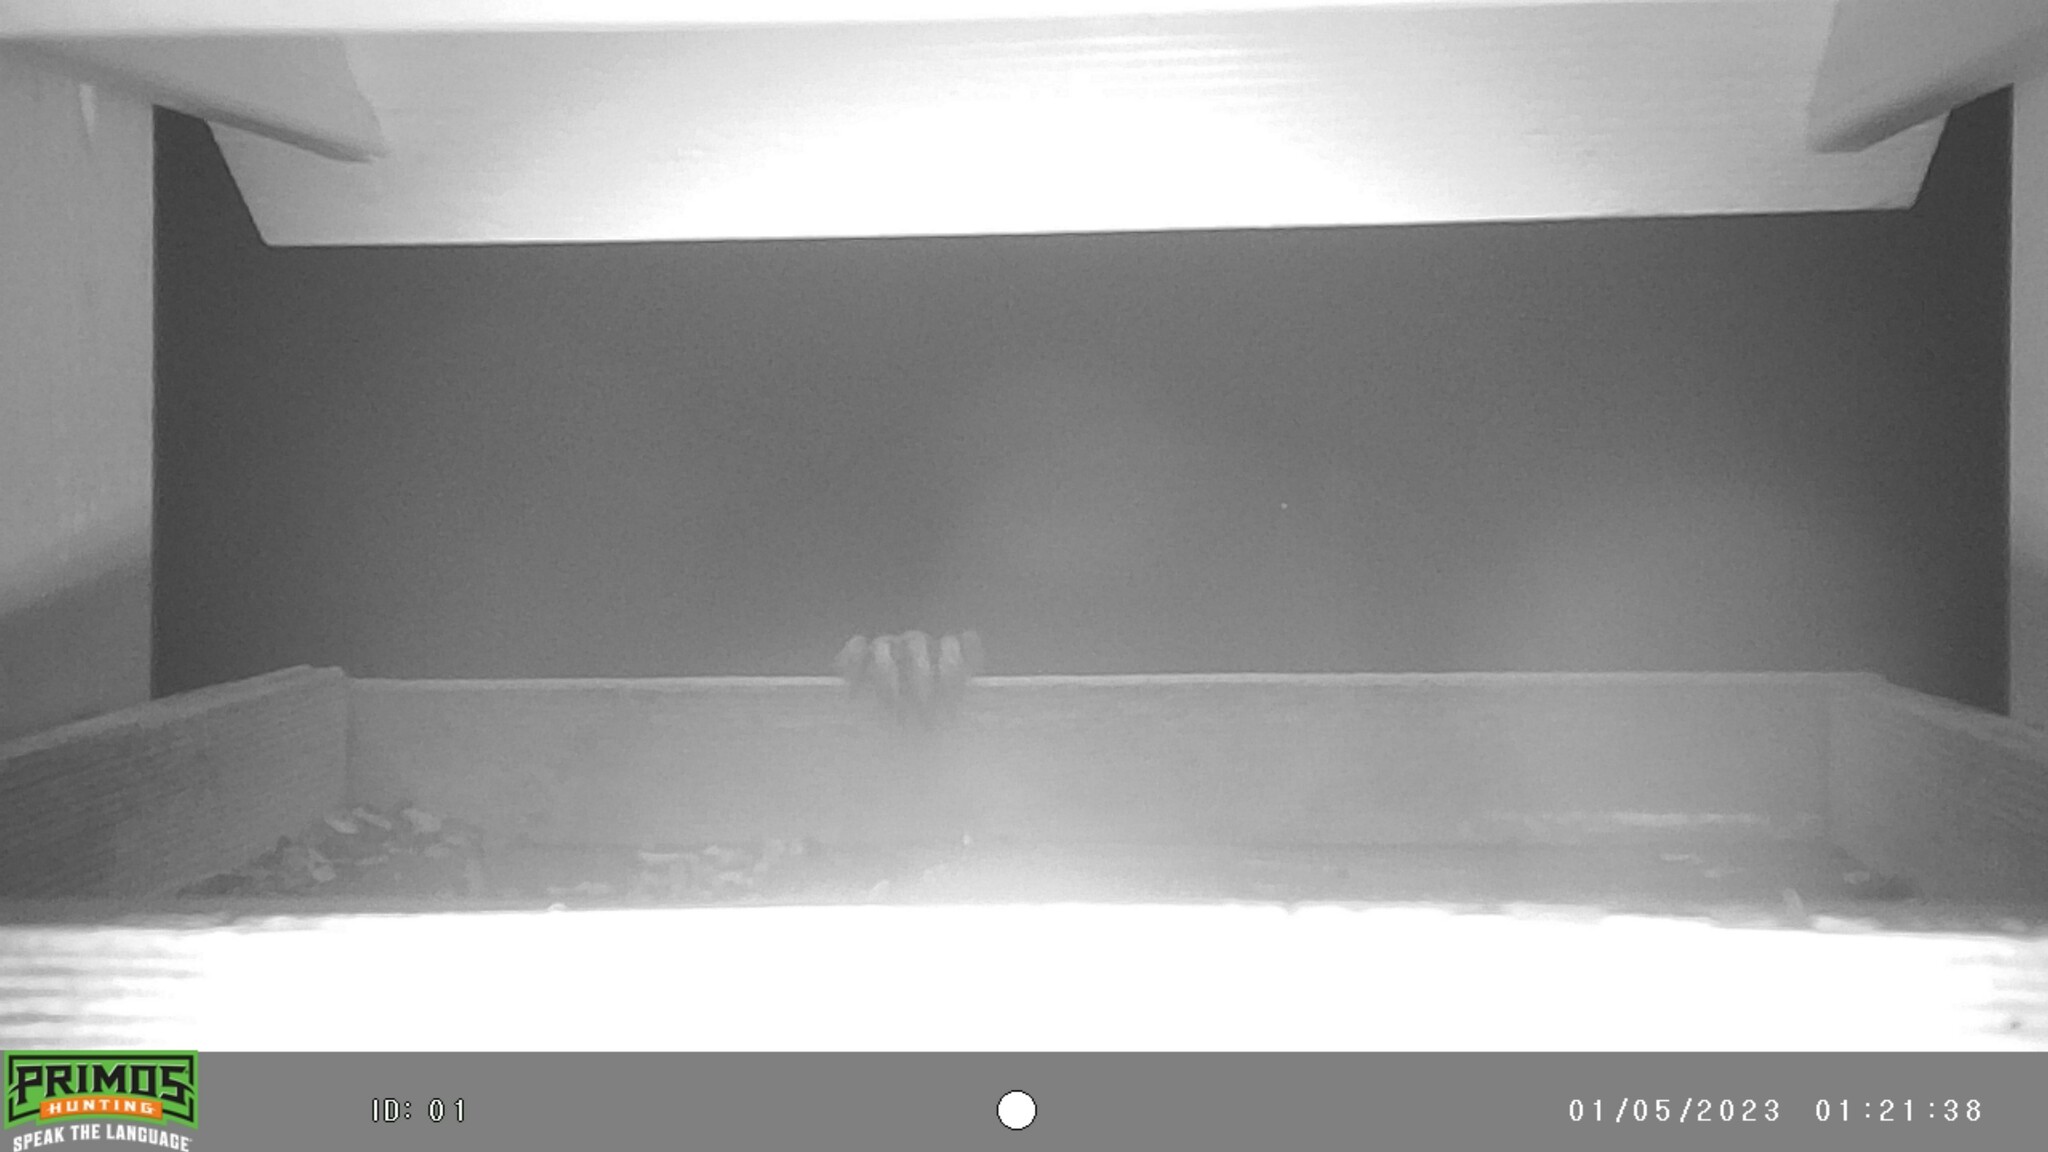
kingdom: Animalia
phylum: Chordata
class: Mammalia
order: Carnivora
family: Procyonidae
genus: Procyon
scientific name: Procyon lotor
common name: Raccoon
